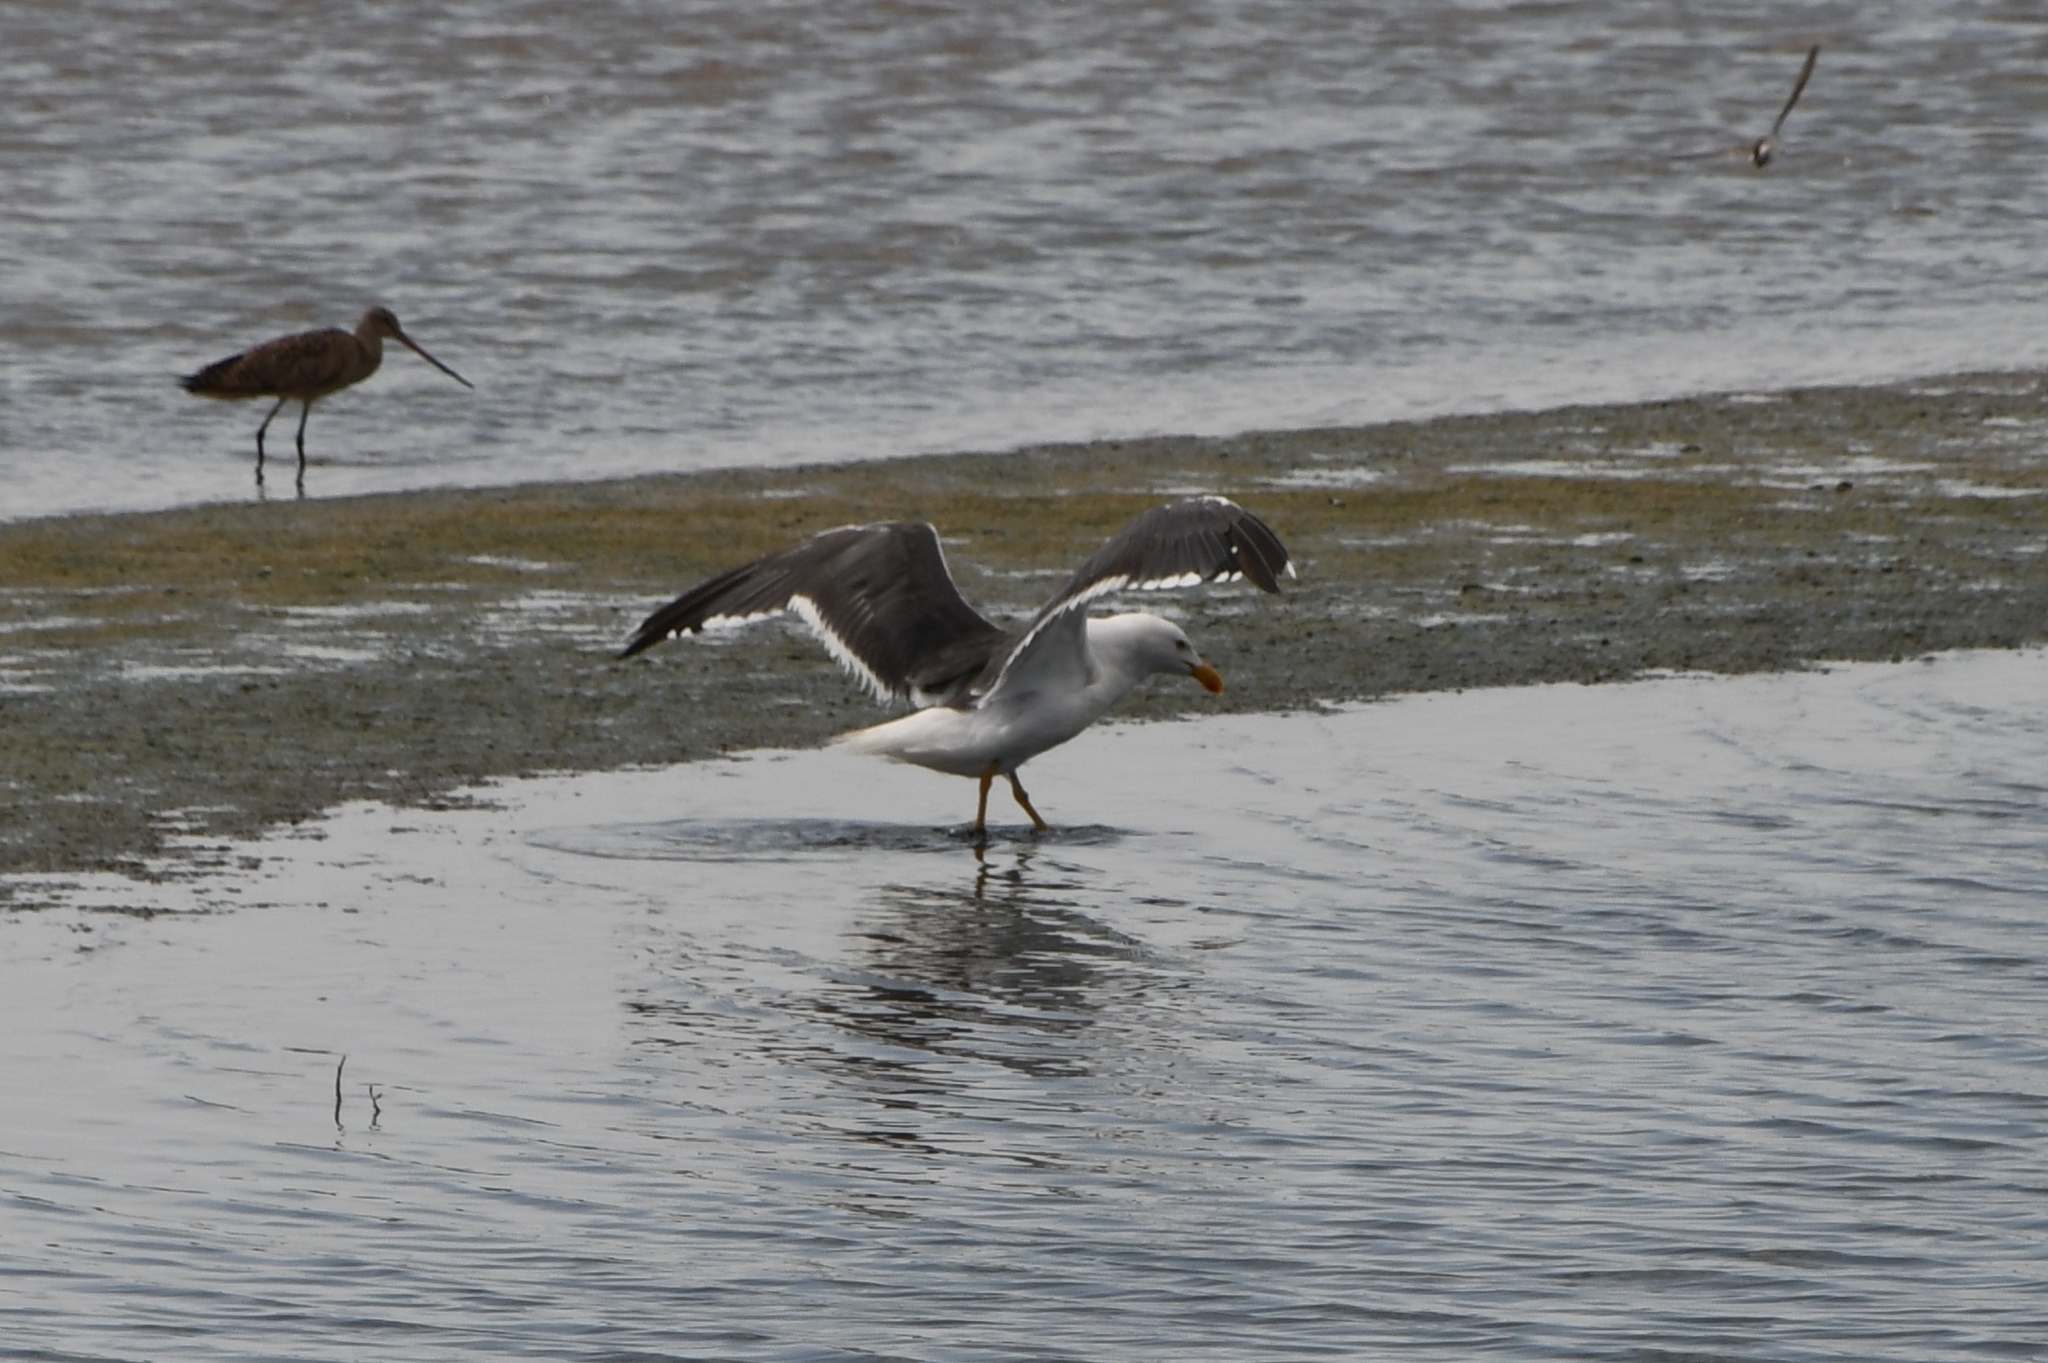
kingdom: Animalia
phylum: Chordata
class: Aves
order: Charadriiformes
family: Laridae
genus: Larus
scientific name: Larus livens
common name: Yellow-footed gull
